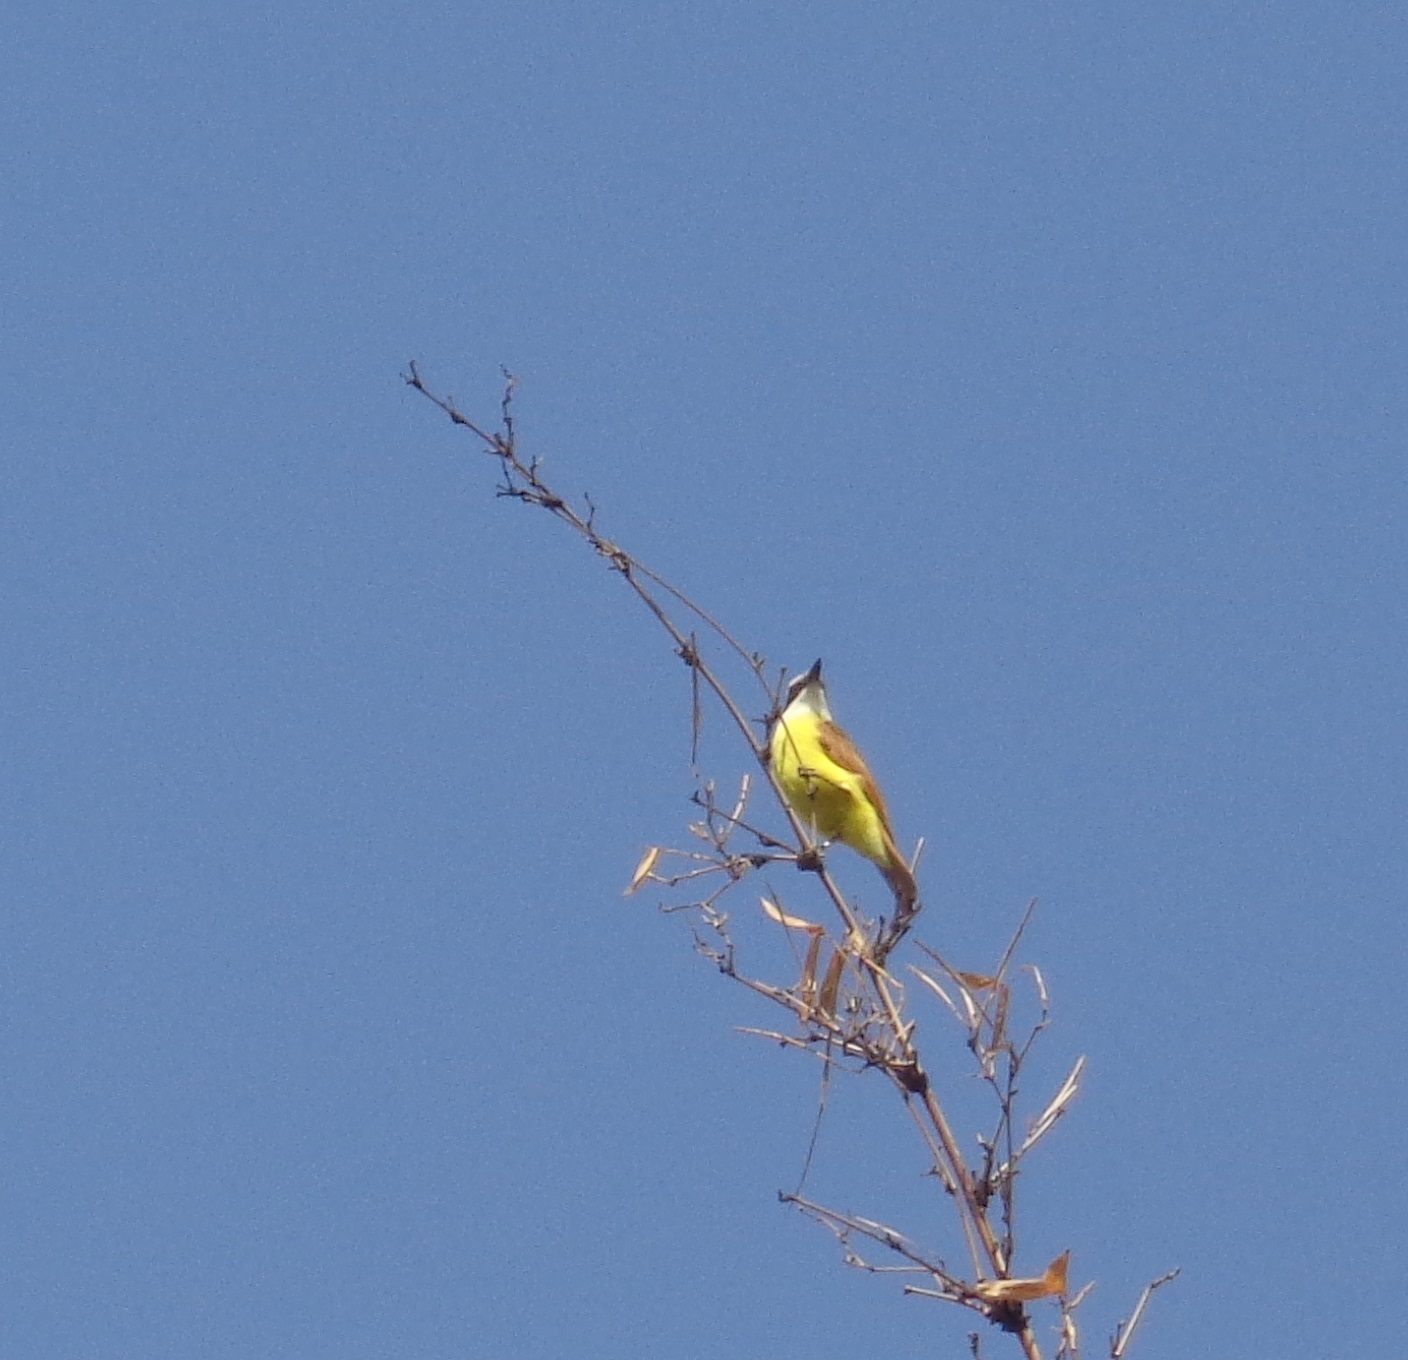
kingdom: Animalia
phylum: Chordata
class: Aves
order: Passeriformes
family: Tyrannidae
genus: Pitangus
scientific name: Pitangus sulphuratus
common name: Great kiskadee
